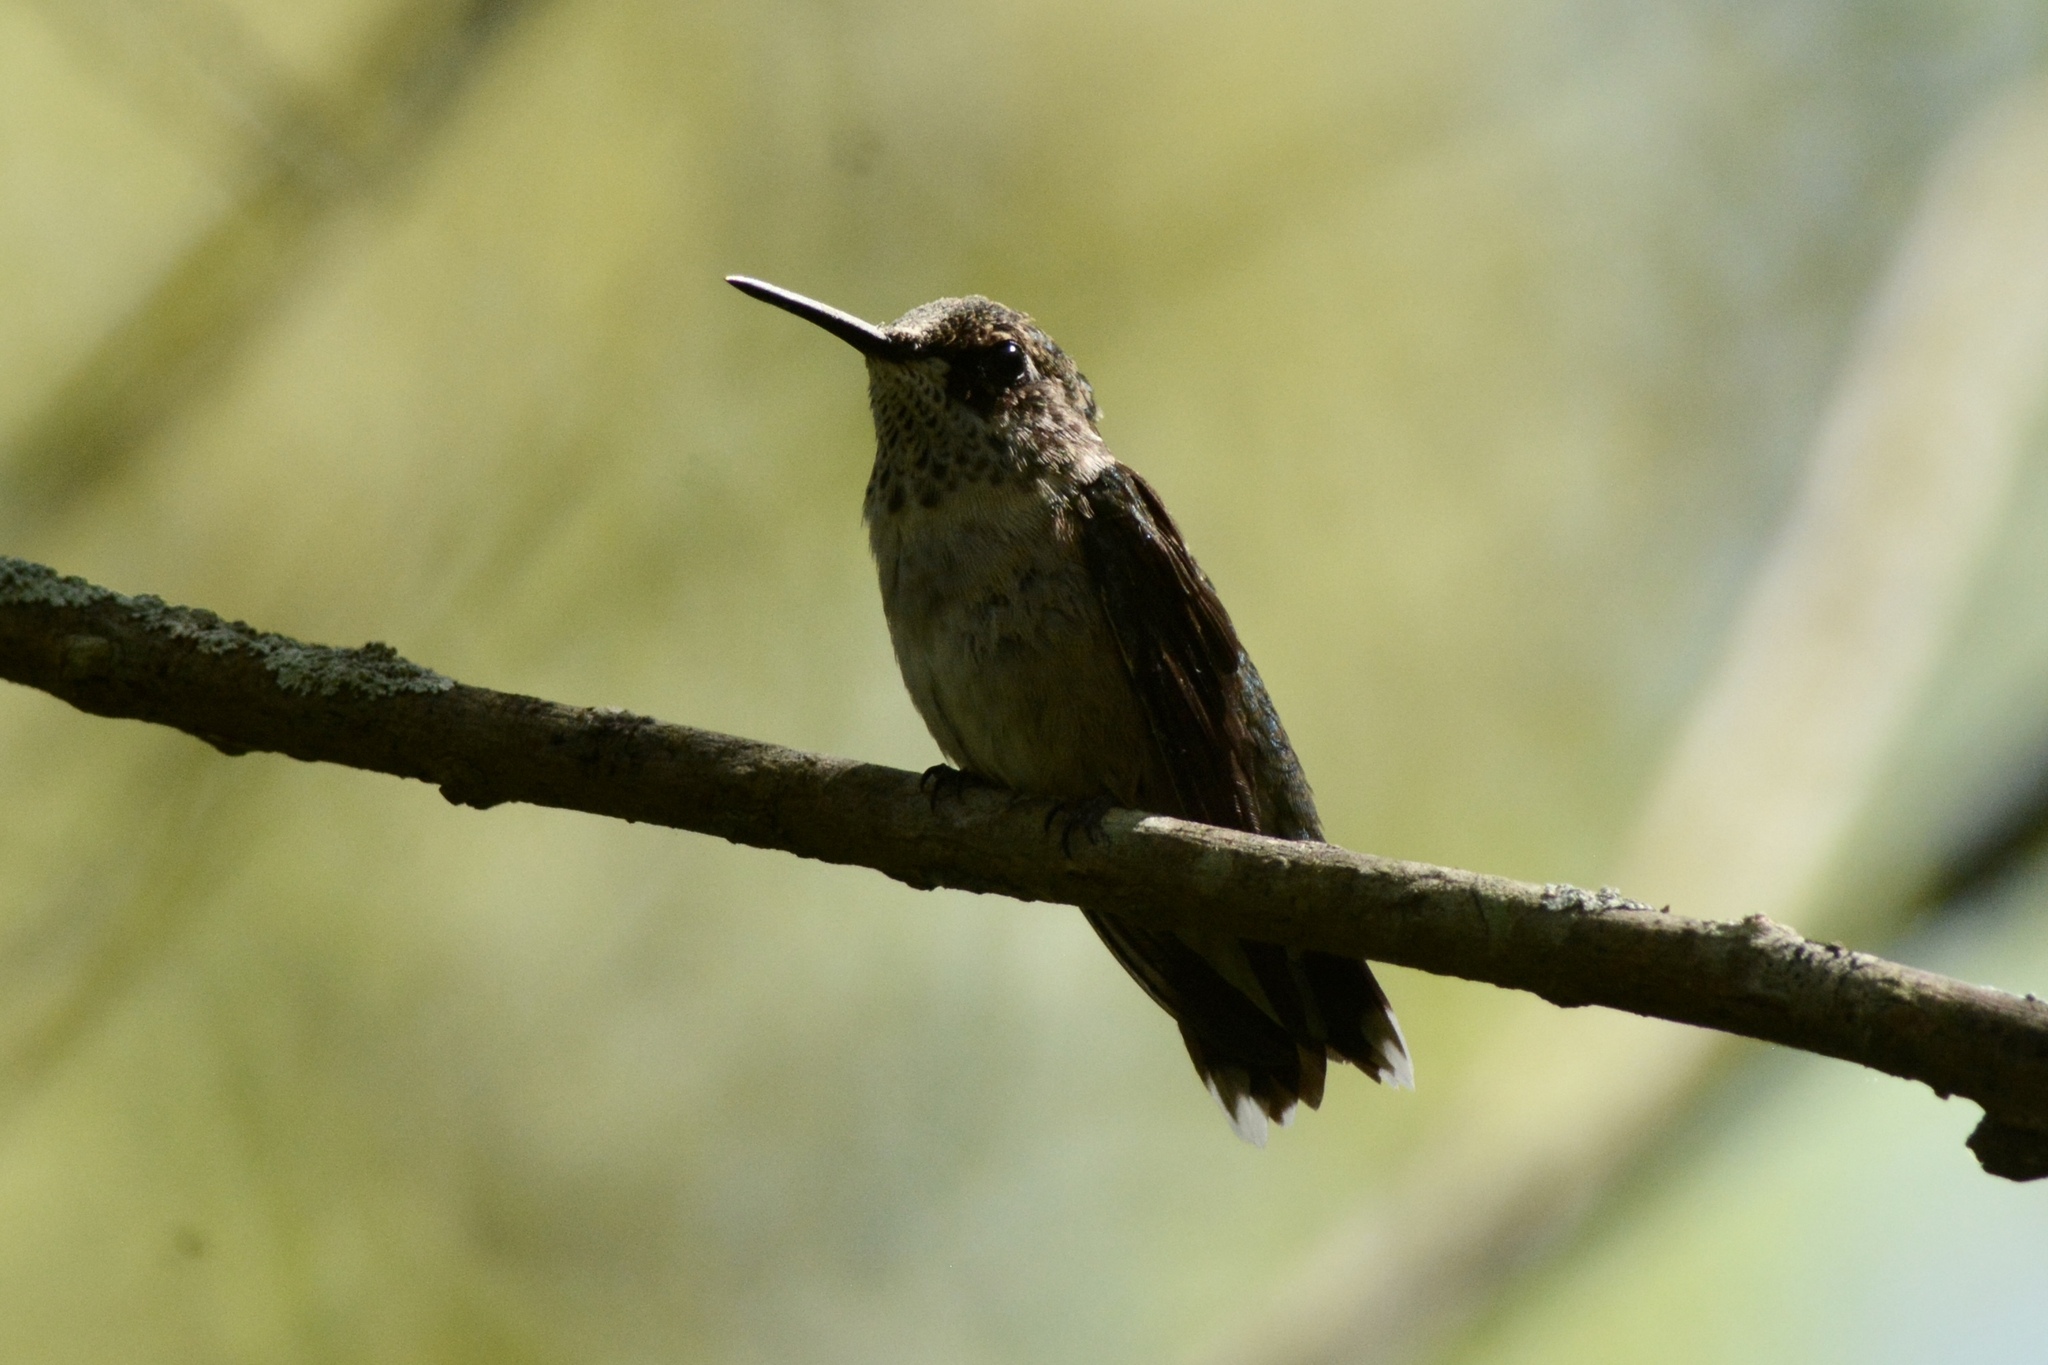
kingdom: Animalia
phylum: Chordata
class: Aves
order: Apodiformes
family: Trochilidae
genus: Archilochus
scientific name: Archilochus colubris
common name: Ruby-throated hummingbird
